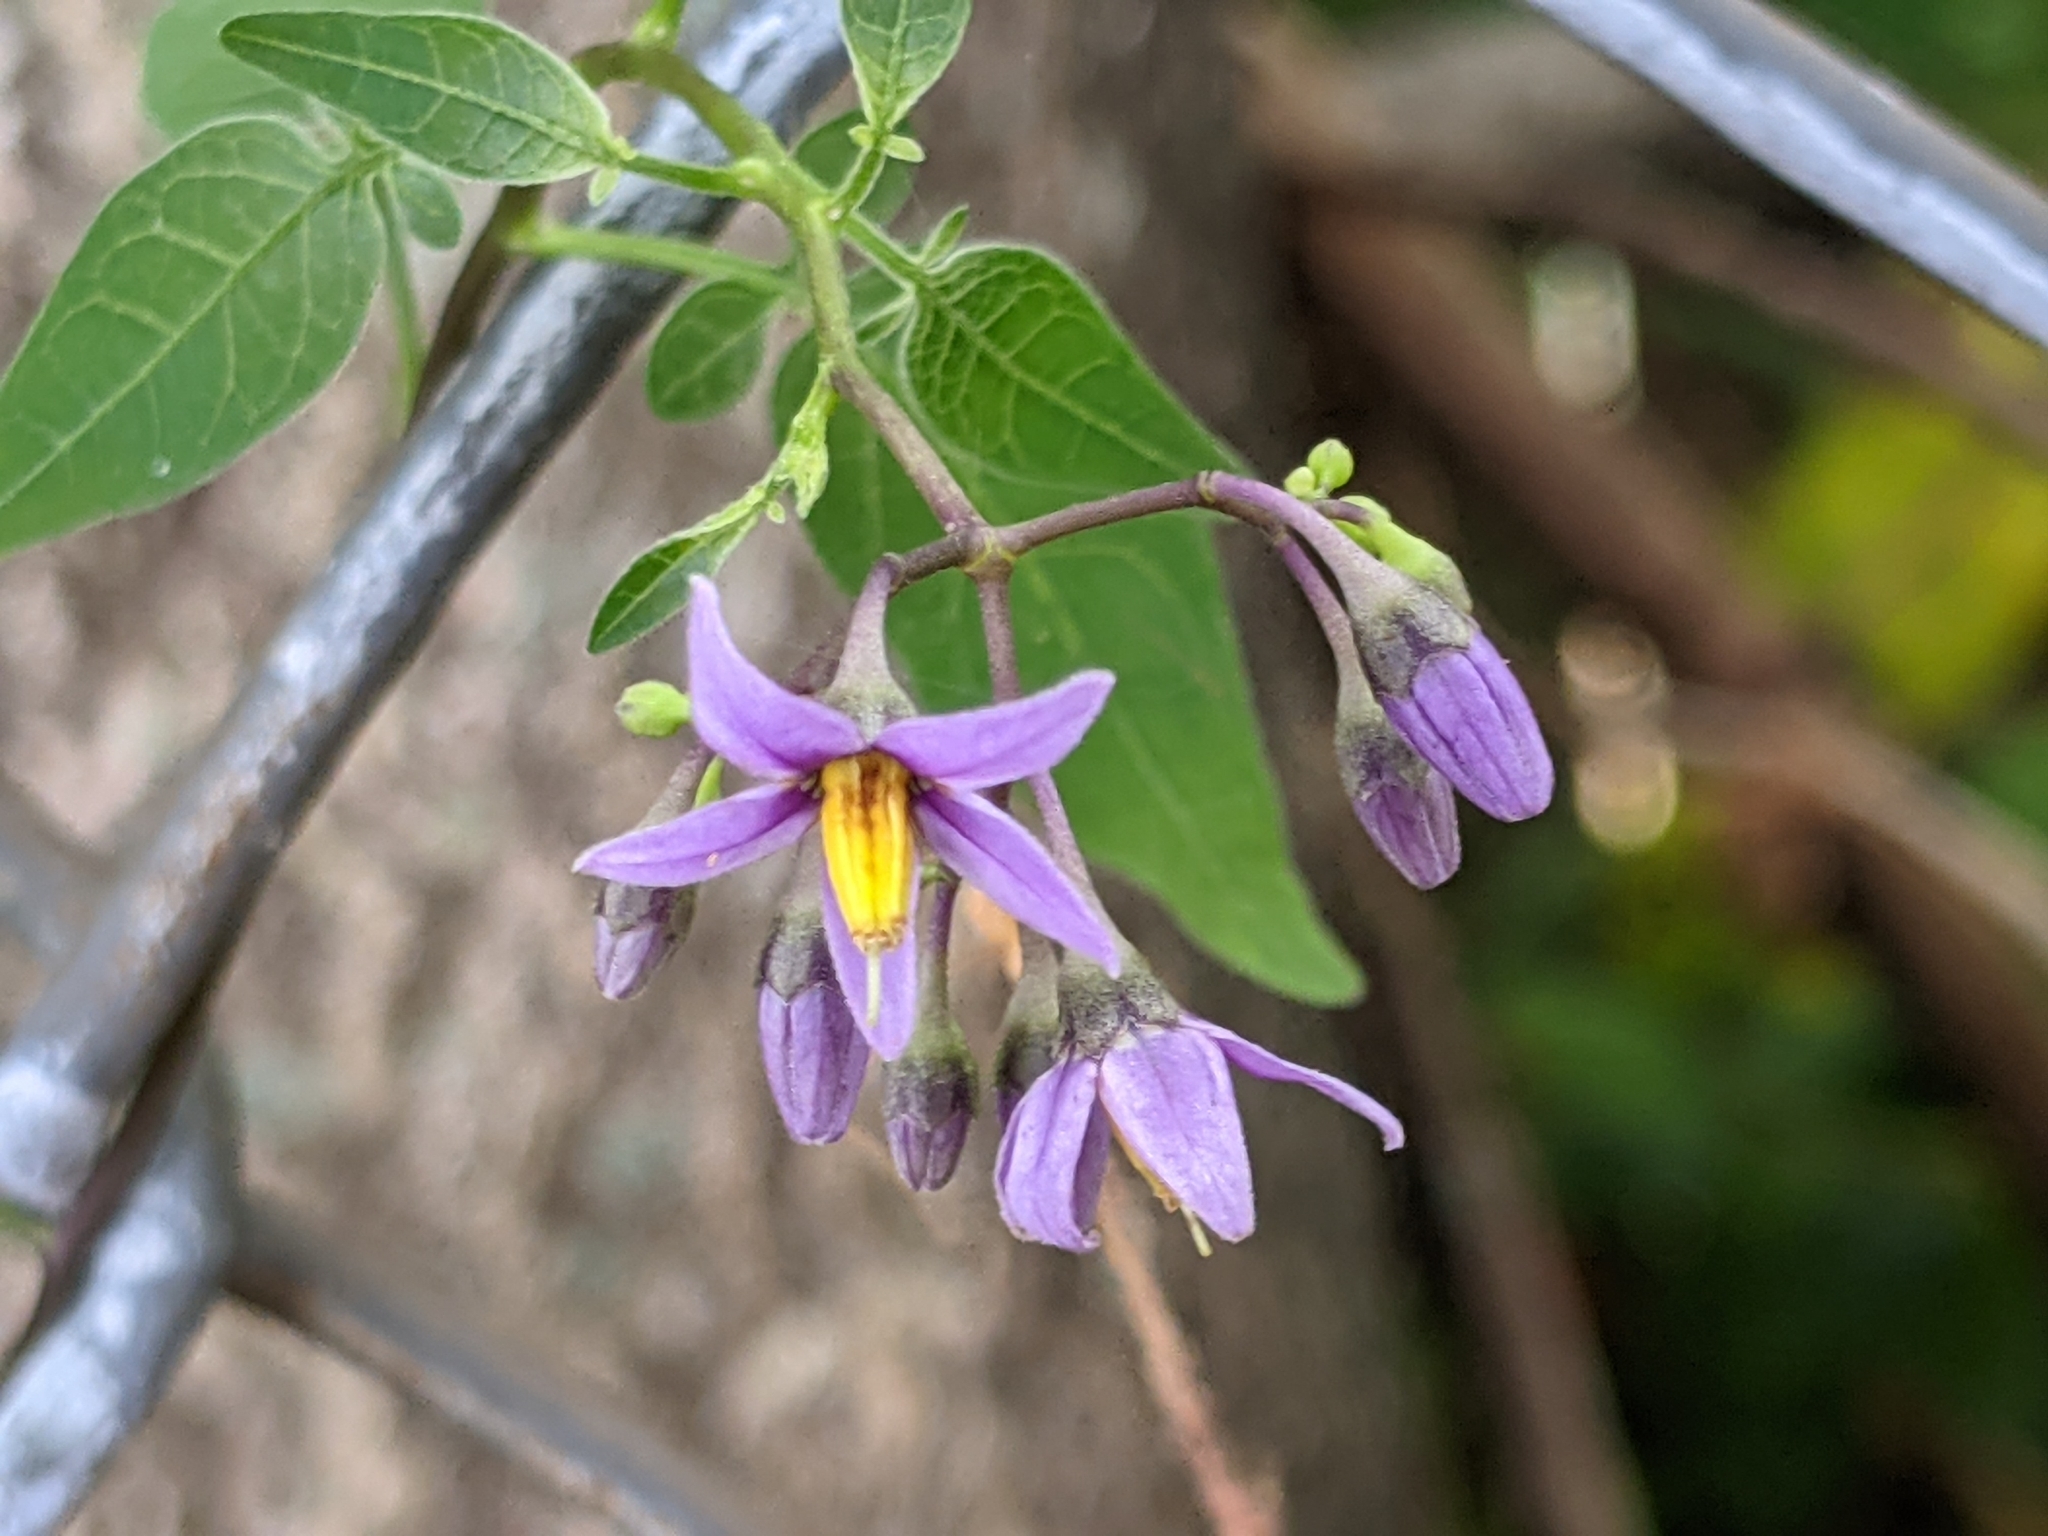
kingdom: Plantae
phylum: Tracheophyta
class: Magnoliopsida
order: Solanales
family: Solanaceae
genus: Solanum
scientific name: Solanum dulcamara
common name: Climbing nightshade
